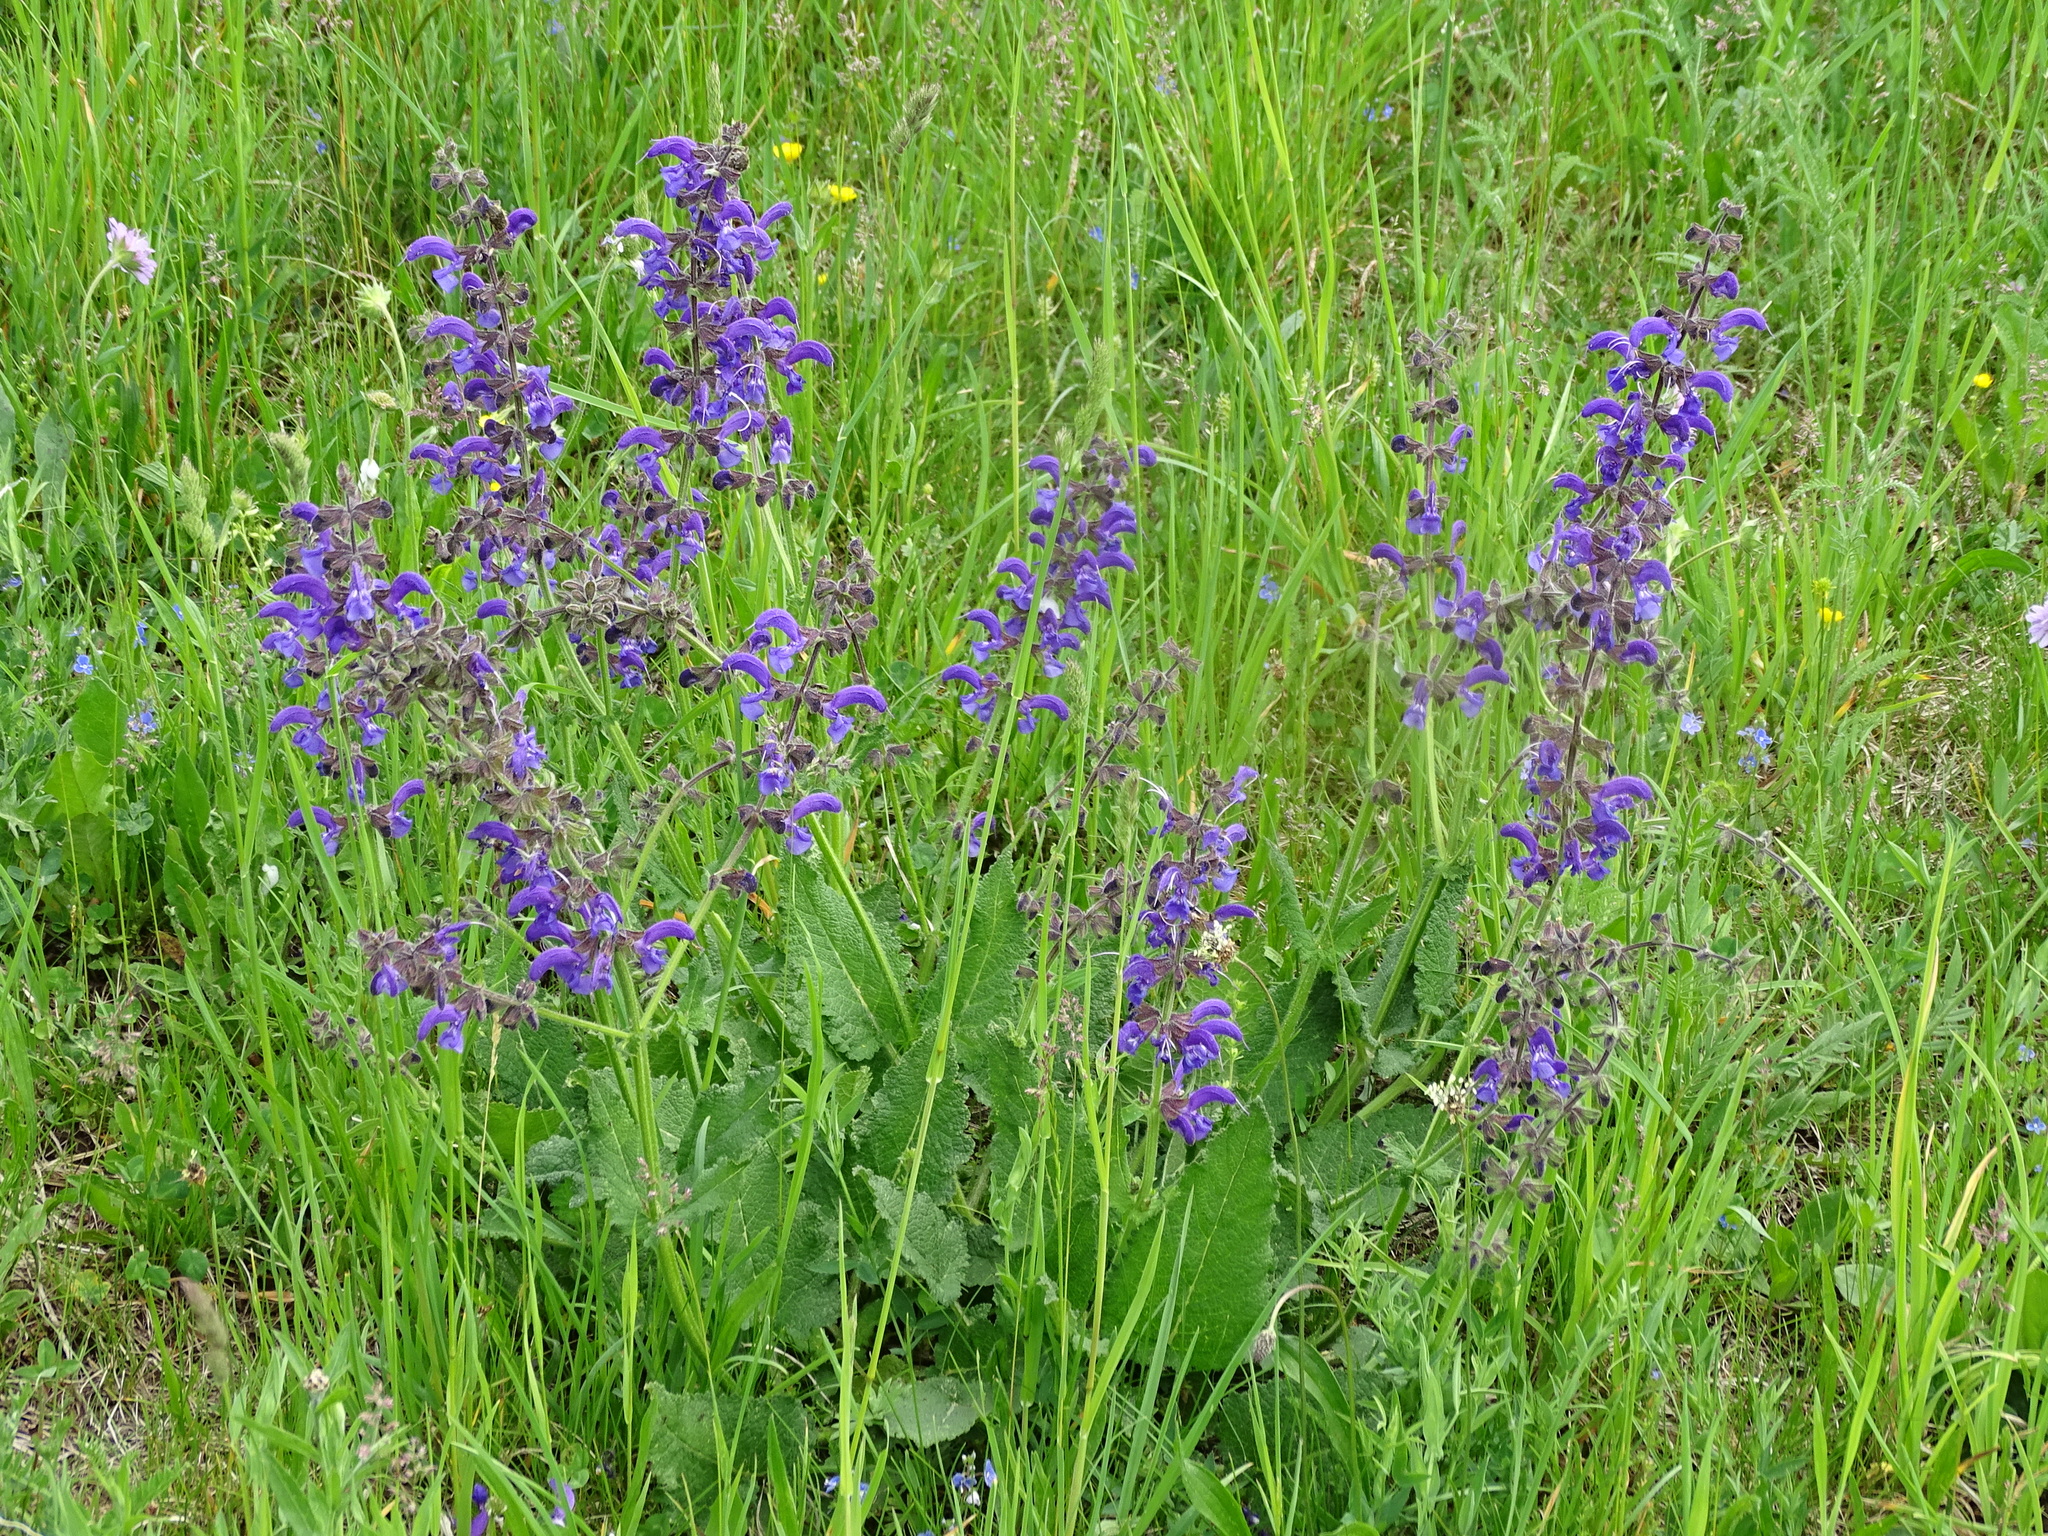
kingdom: Plantae
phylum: Tracheophyta
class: Magnoliopsida
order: Lamiales
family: Lamiaceae
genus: Salvia
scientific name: Salvia pratensis
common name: Meadow sage
